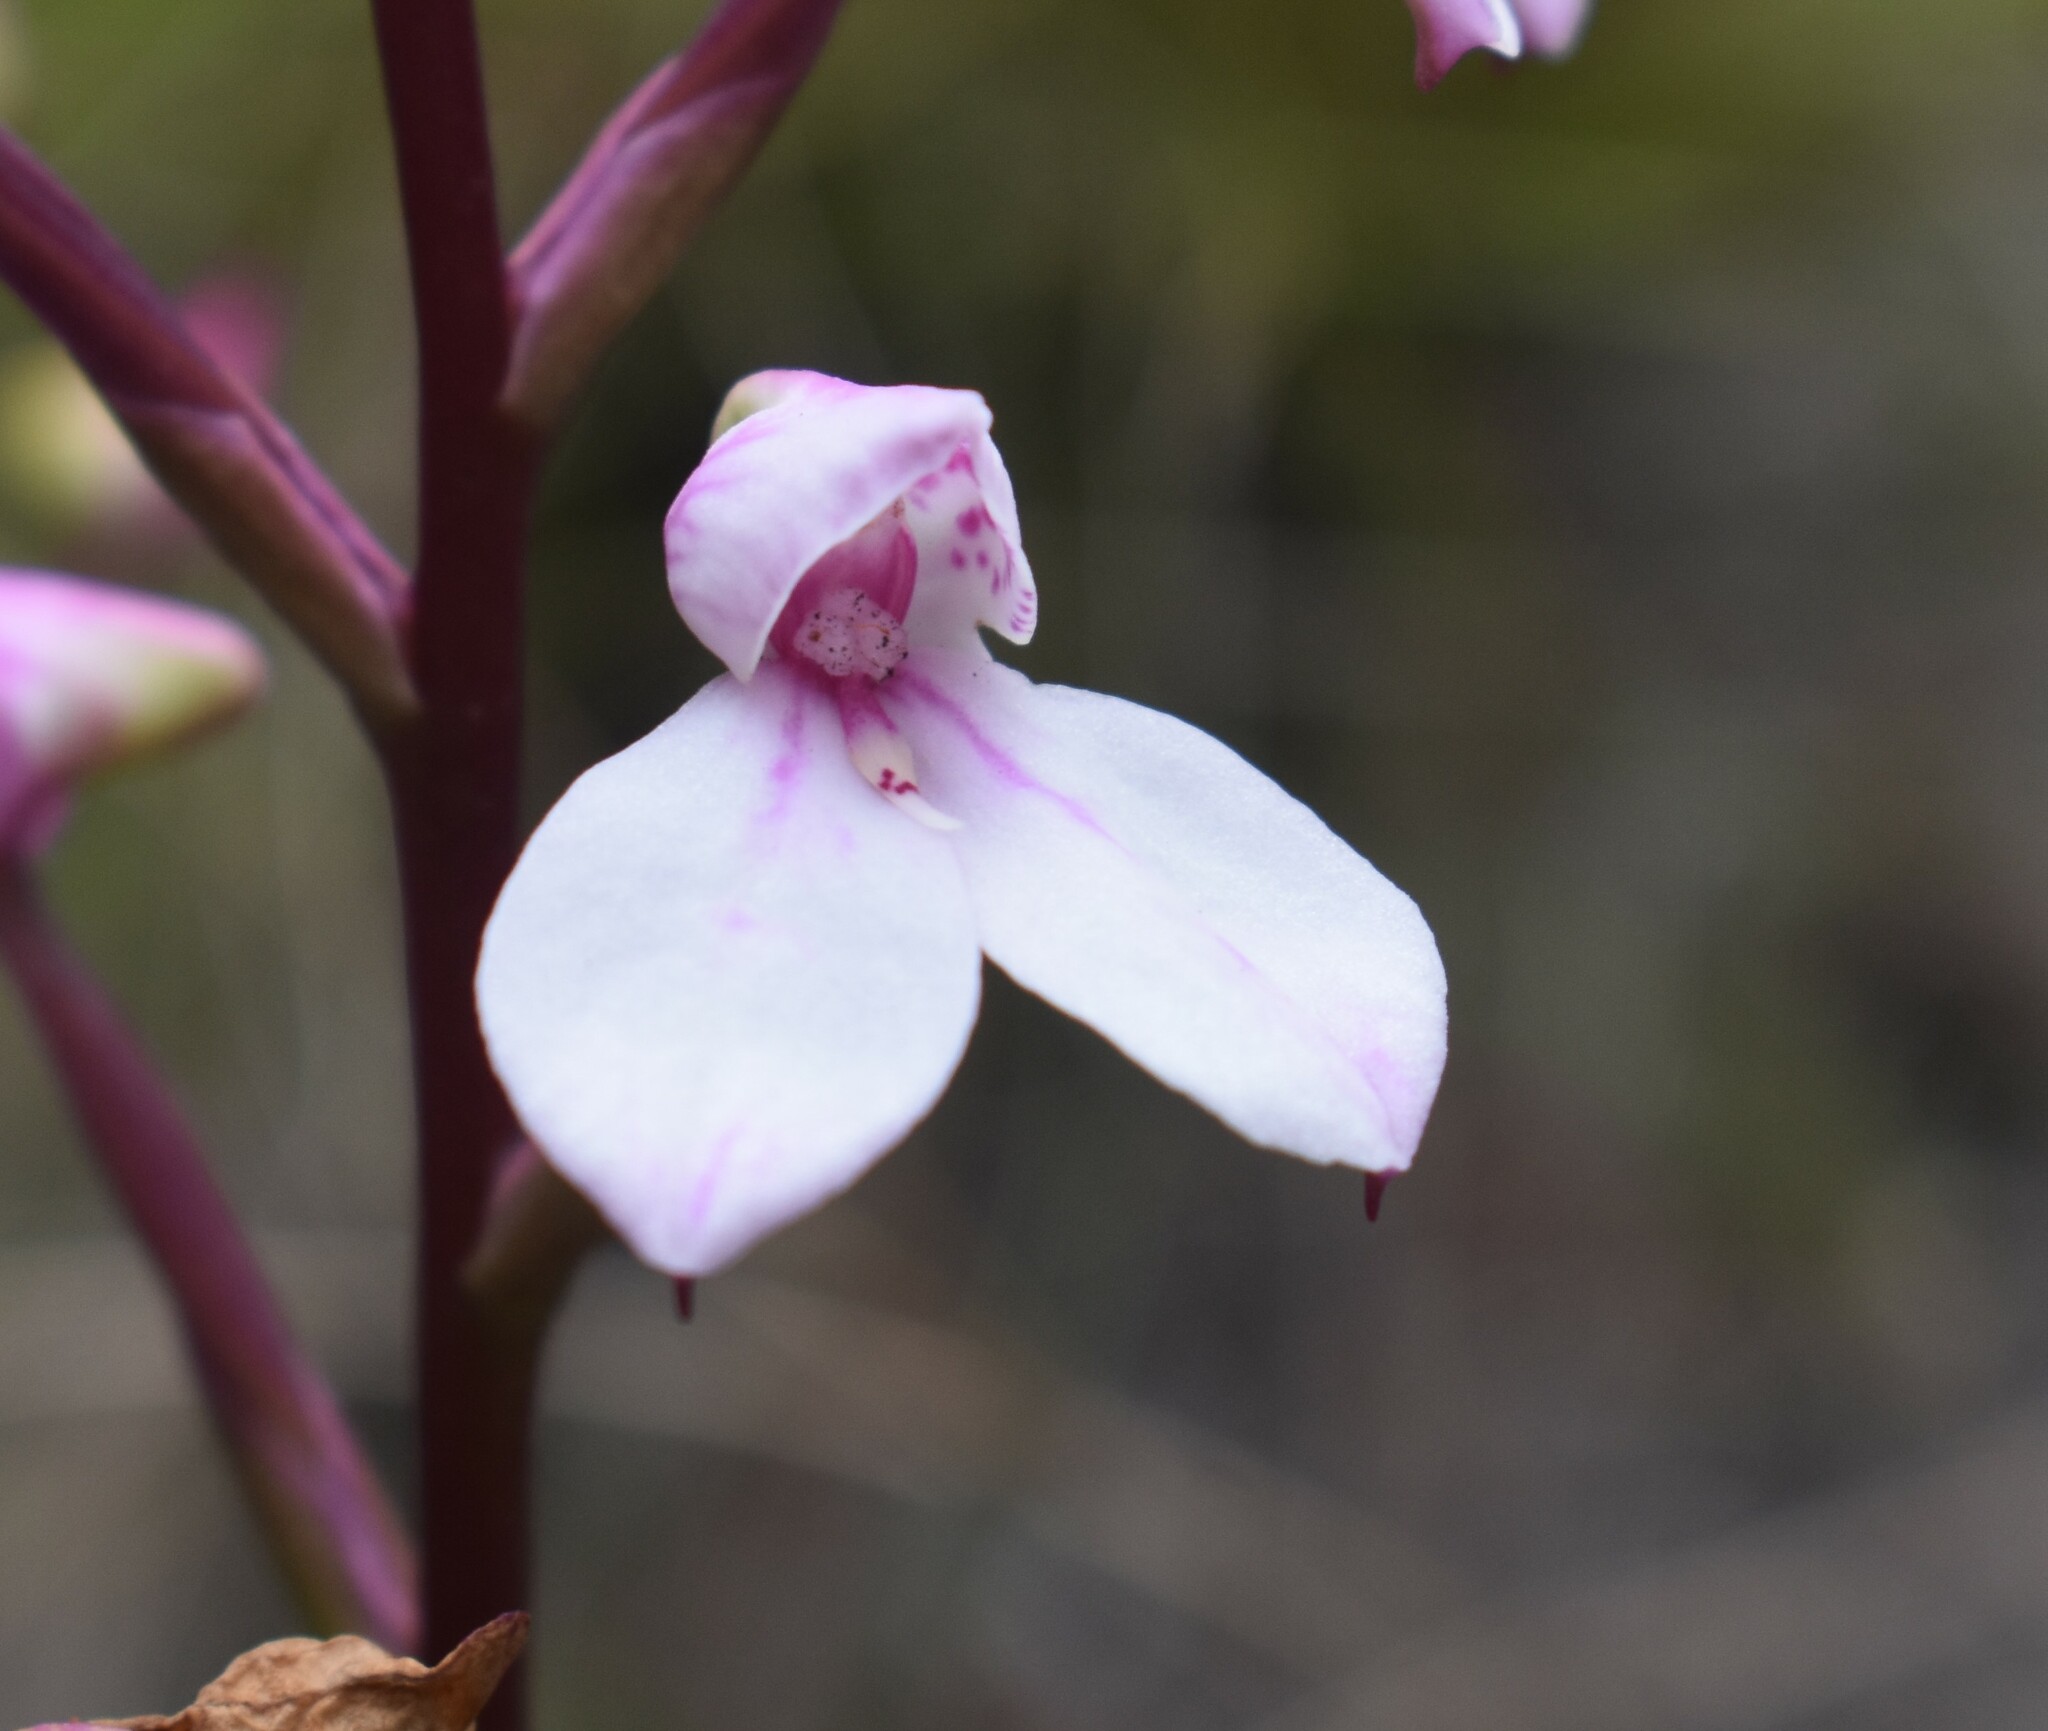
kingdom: Plantae
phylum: Tracheophyta
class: Liliopsida
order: Asparagales
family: Orchidaceae
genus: Disa
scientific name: Disa tripetaloides
